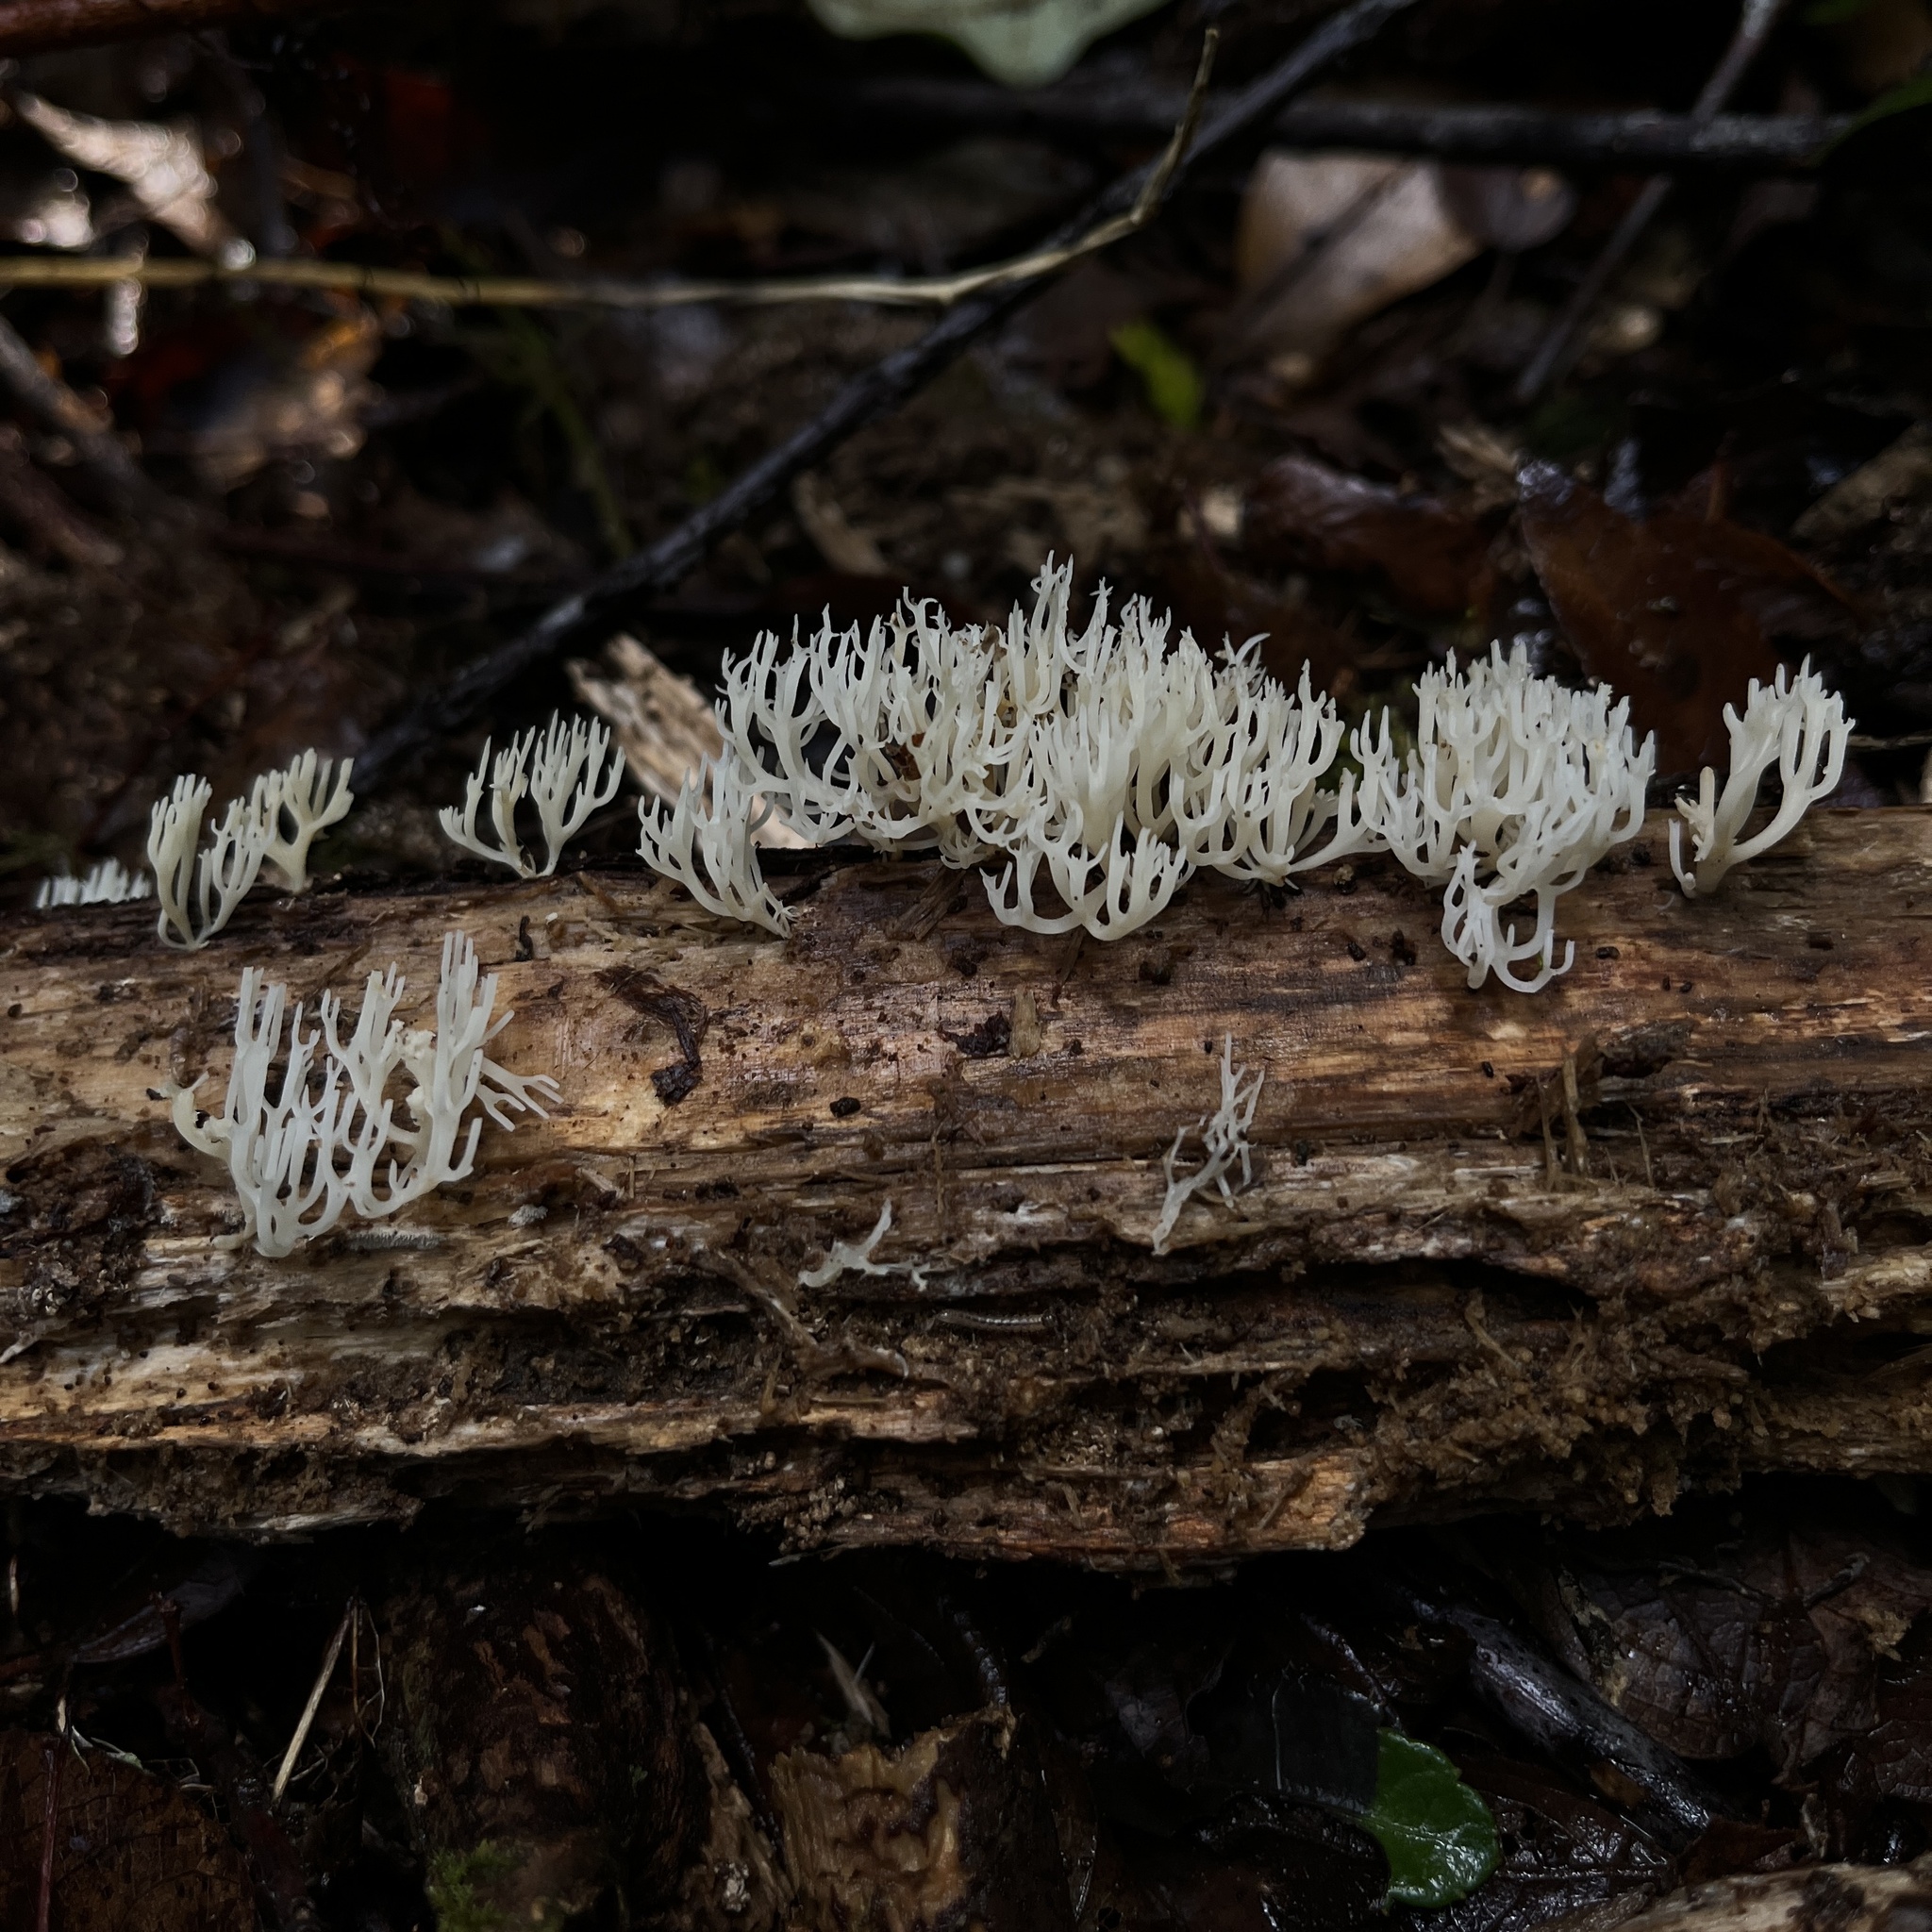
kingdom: Fungi
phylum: Basidiomycota
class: Agaricomycetes
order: Russulales
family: Auriscalpiaceae
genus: Artomyces
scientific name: Artomyces adrienneae
